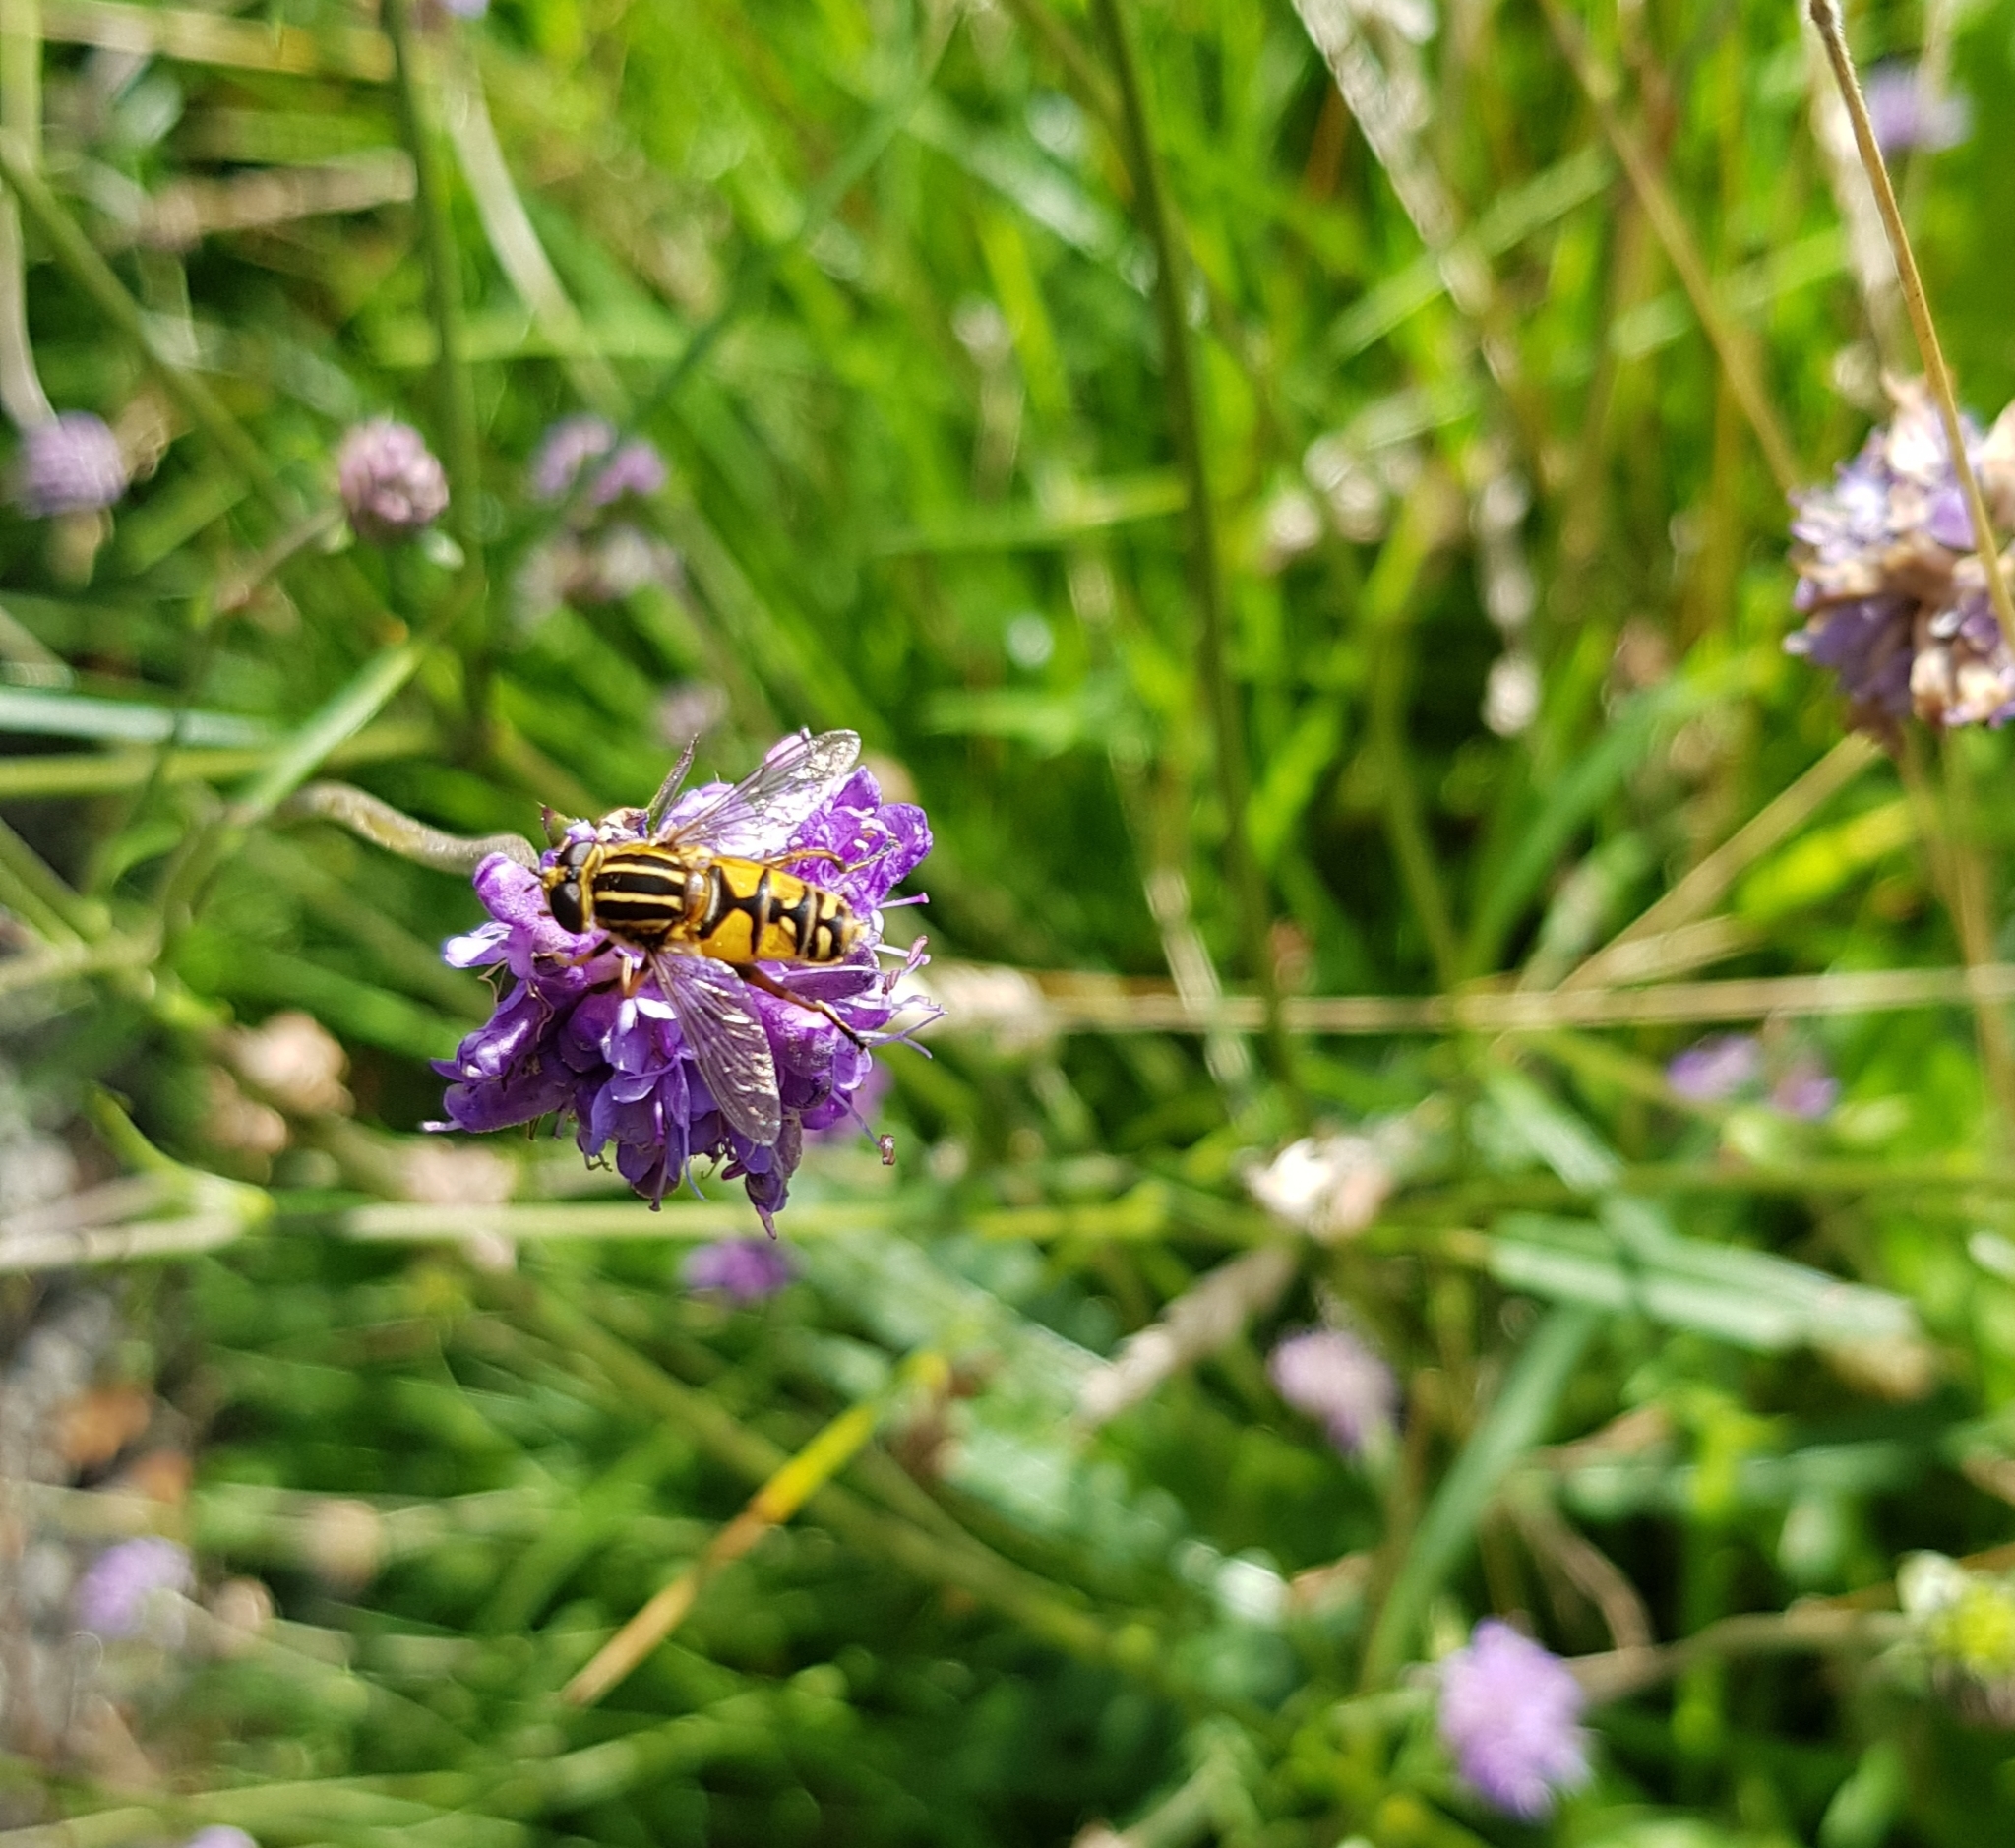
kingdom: Animalia
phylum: Arthropoda
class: Insecta
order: Diptera
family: Syrphidae
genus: Helophilus
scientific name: Helophilus pendulus
